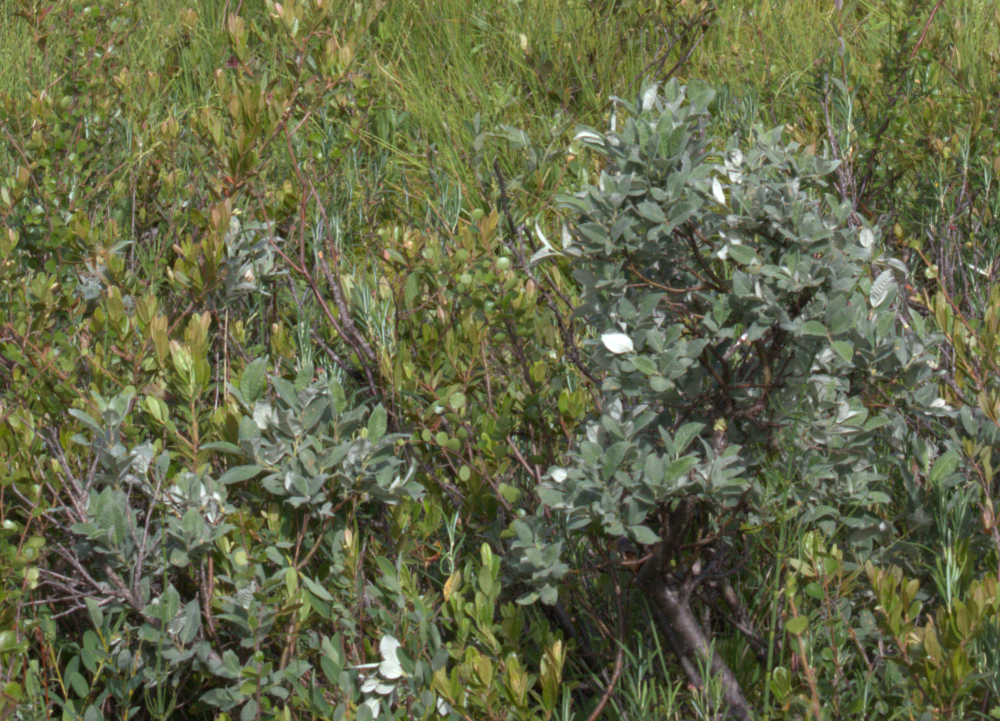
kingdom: Plantae
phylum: Tracheophyta
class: Magnoliopsida
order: Malpighiales
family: Salicaceae
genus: Salix
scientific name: Salix lapponum
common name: Downy willow
